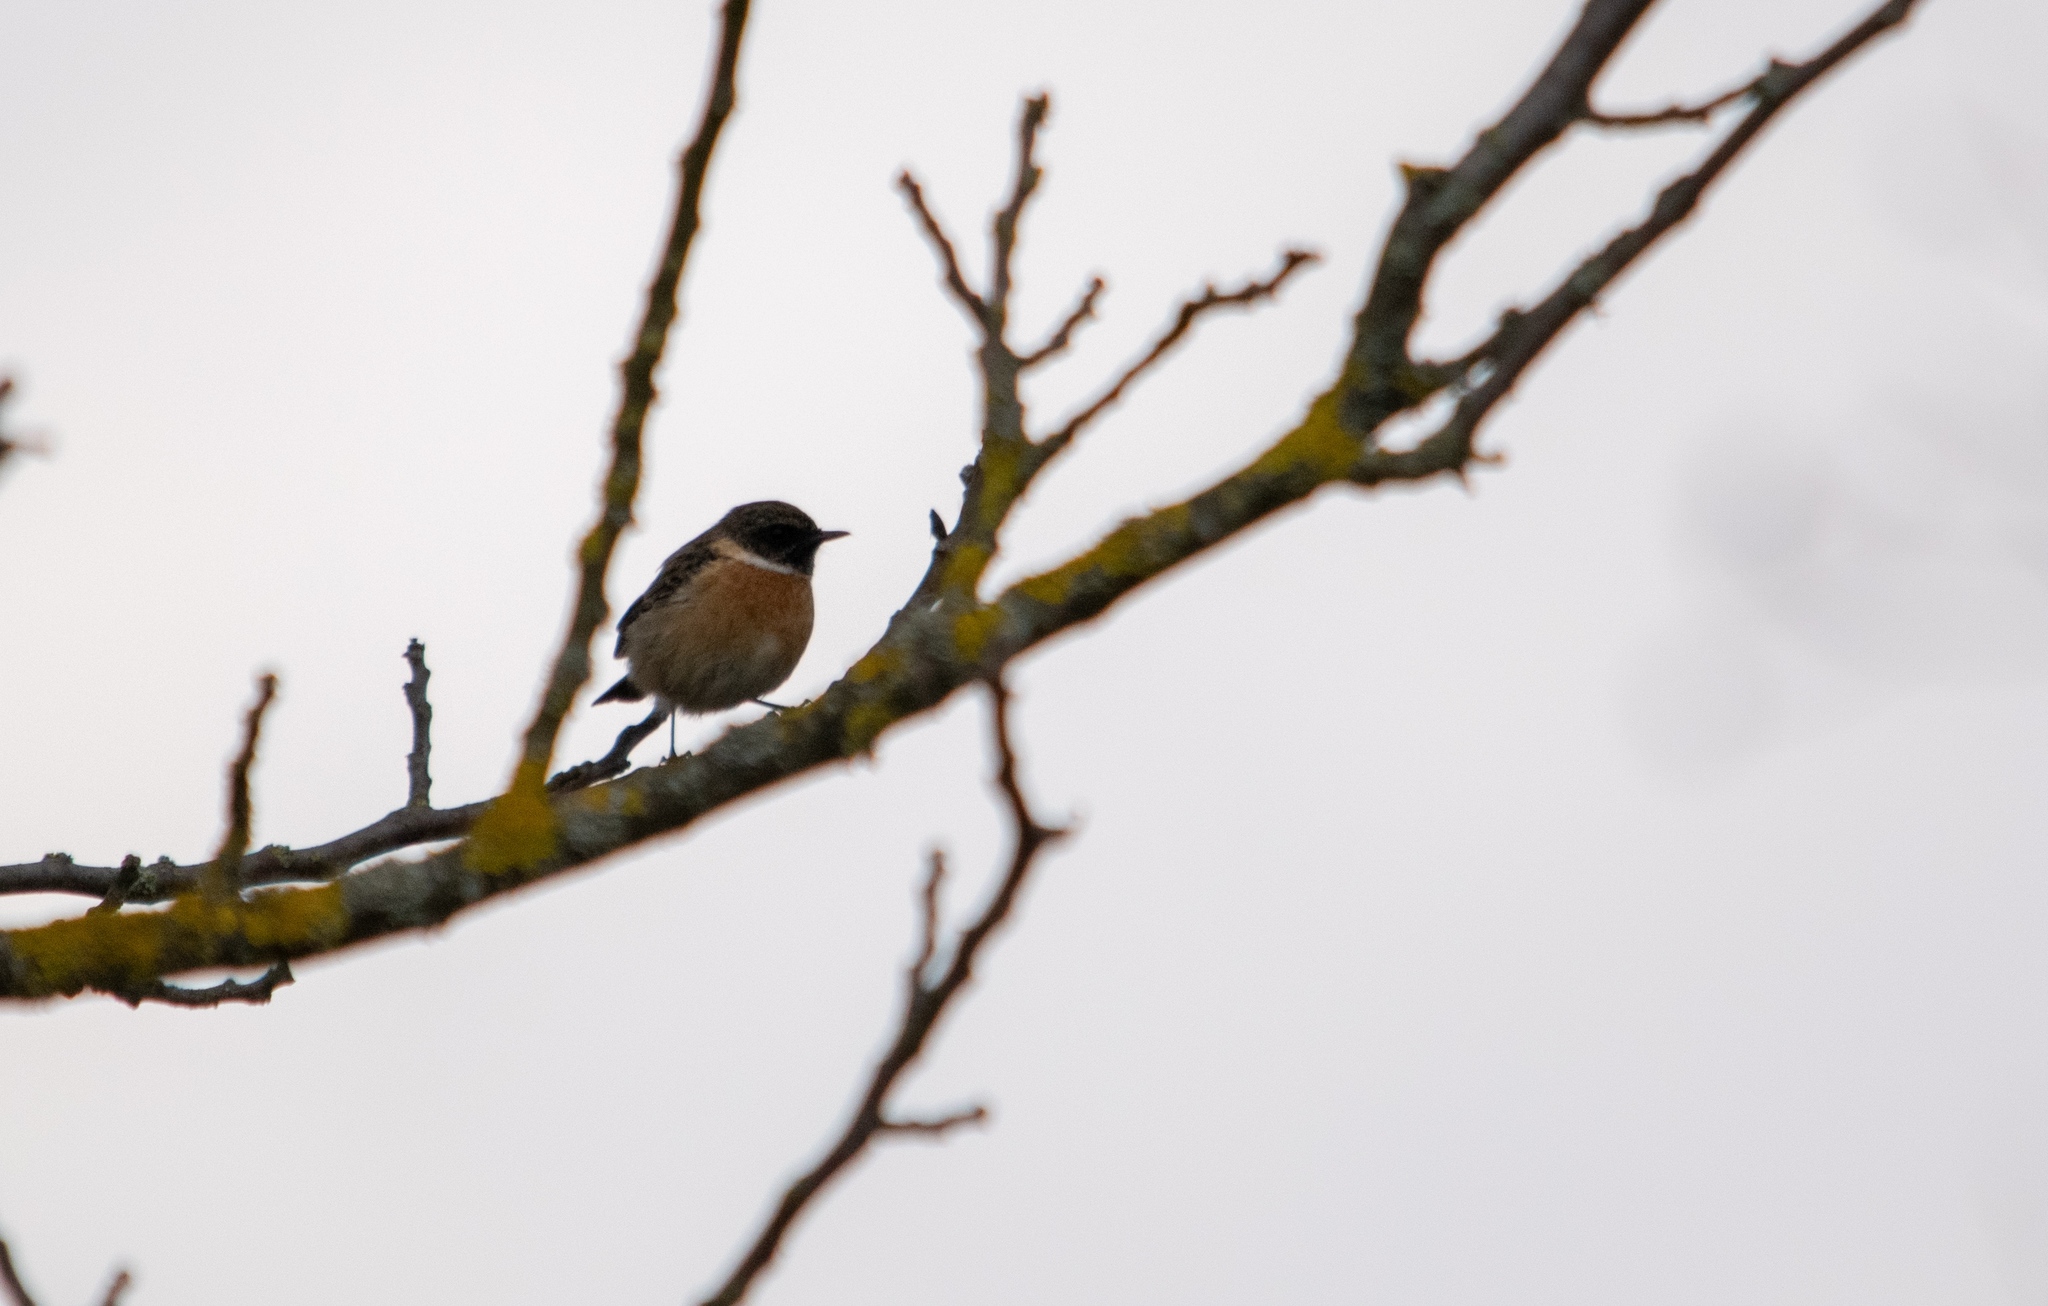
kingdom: Animalia
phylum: Chordata
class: Aves
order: Passeriformes
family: Muscicapidae
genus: Saxicola
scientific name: Saxicola rubicola
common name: European stonechat
